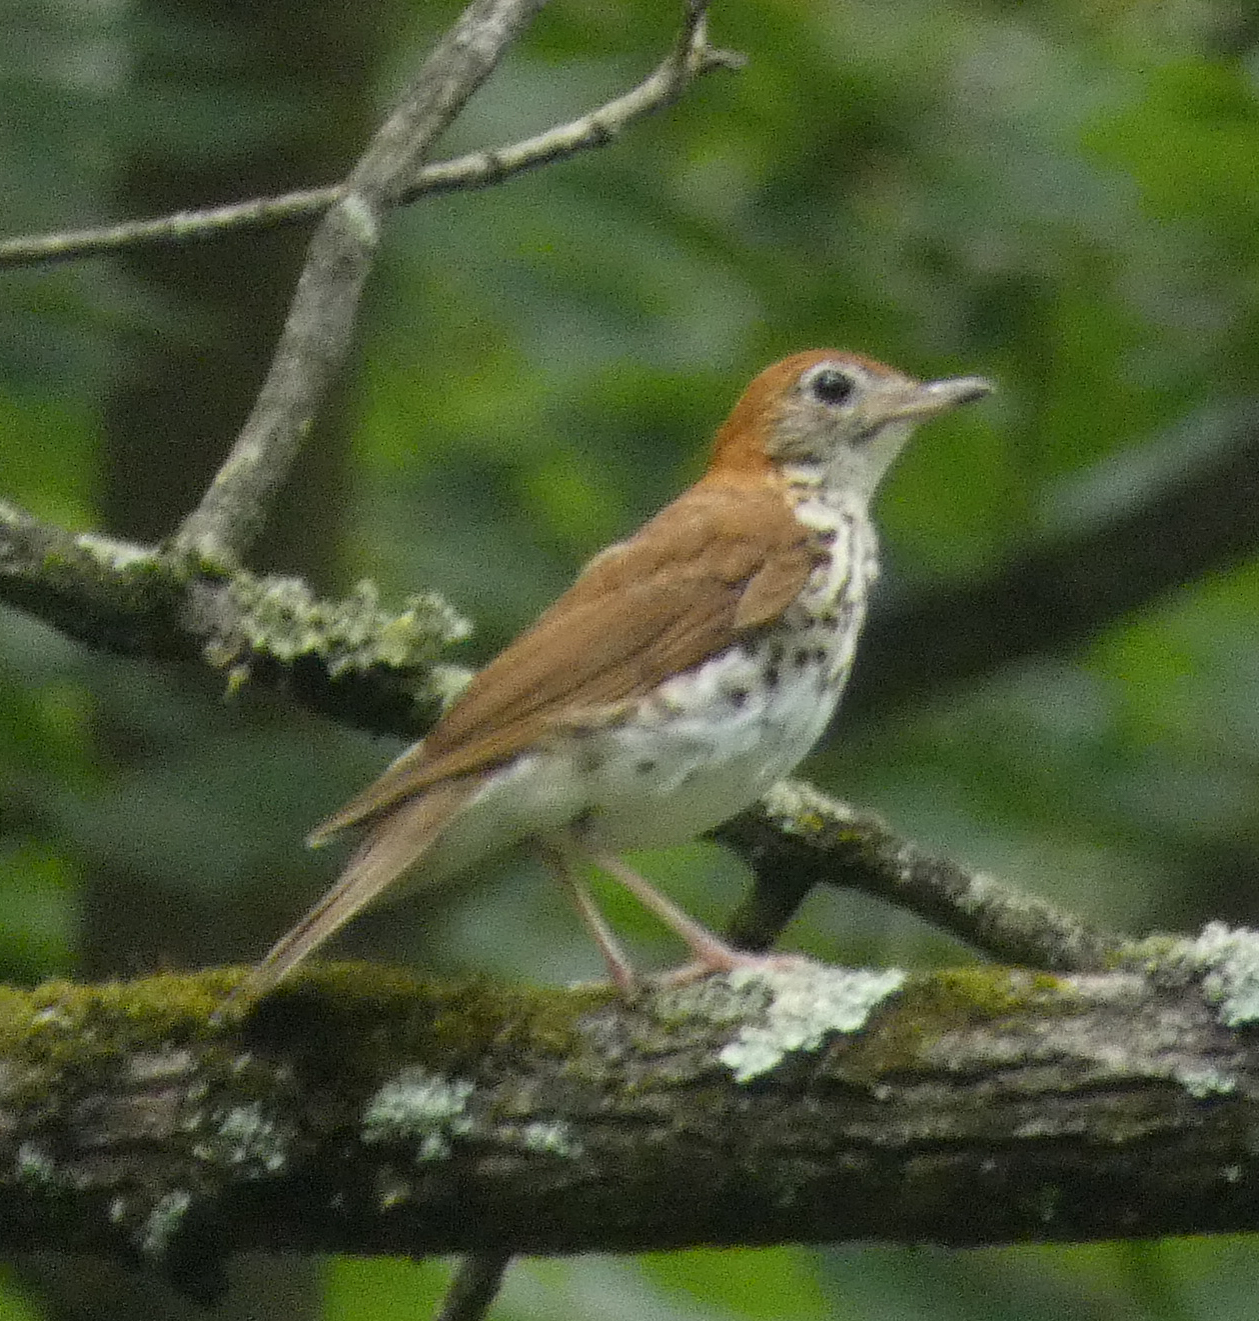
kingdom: Animalia
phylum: Chordata
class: Aves
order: Passeriformes
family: Turdidae
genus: Hylocichla
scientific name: Hylocichla mustelina
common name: Wood thrush
